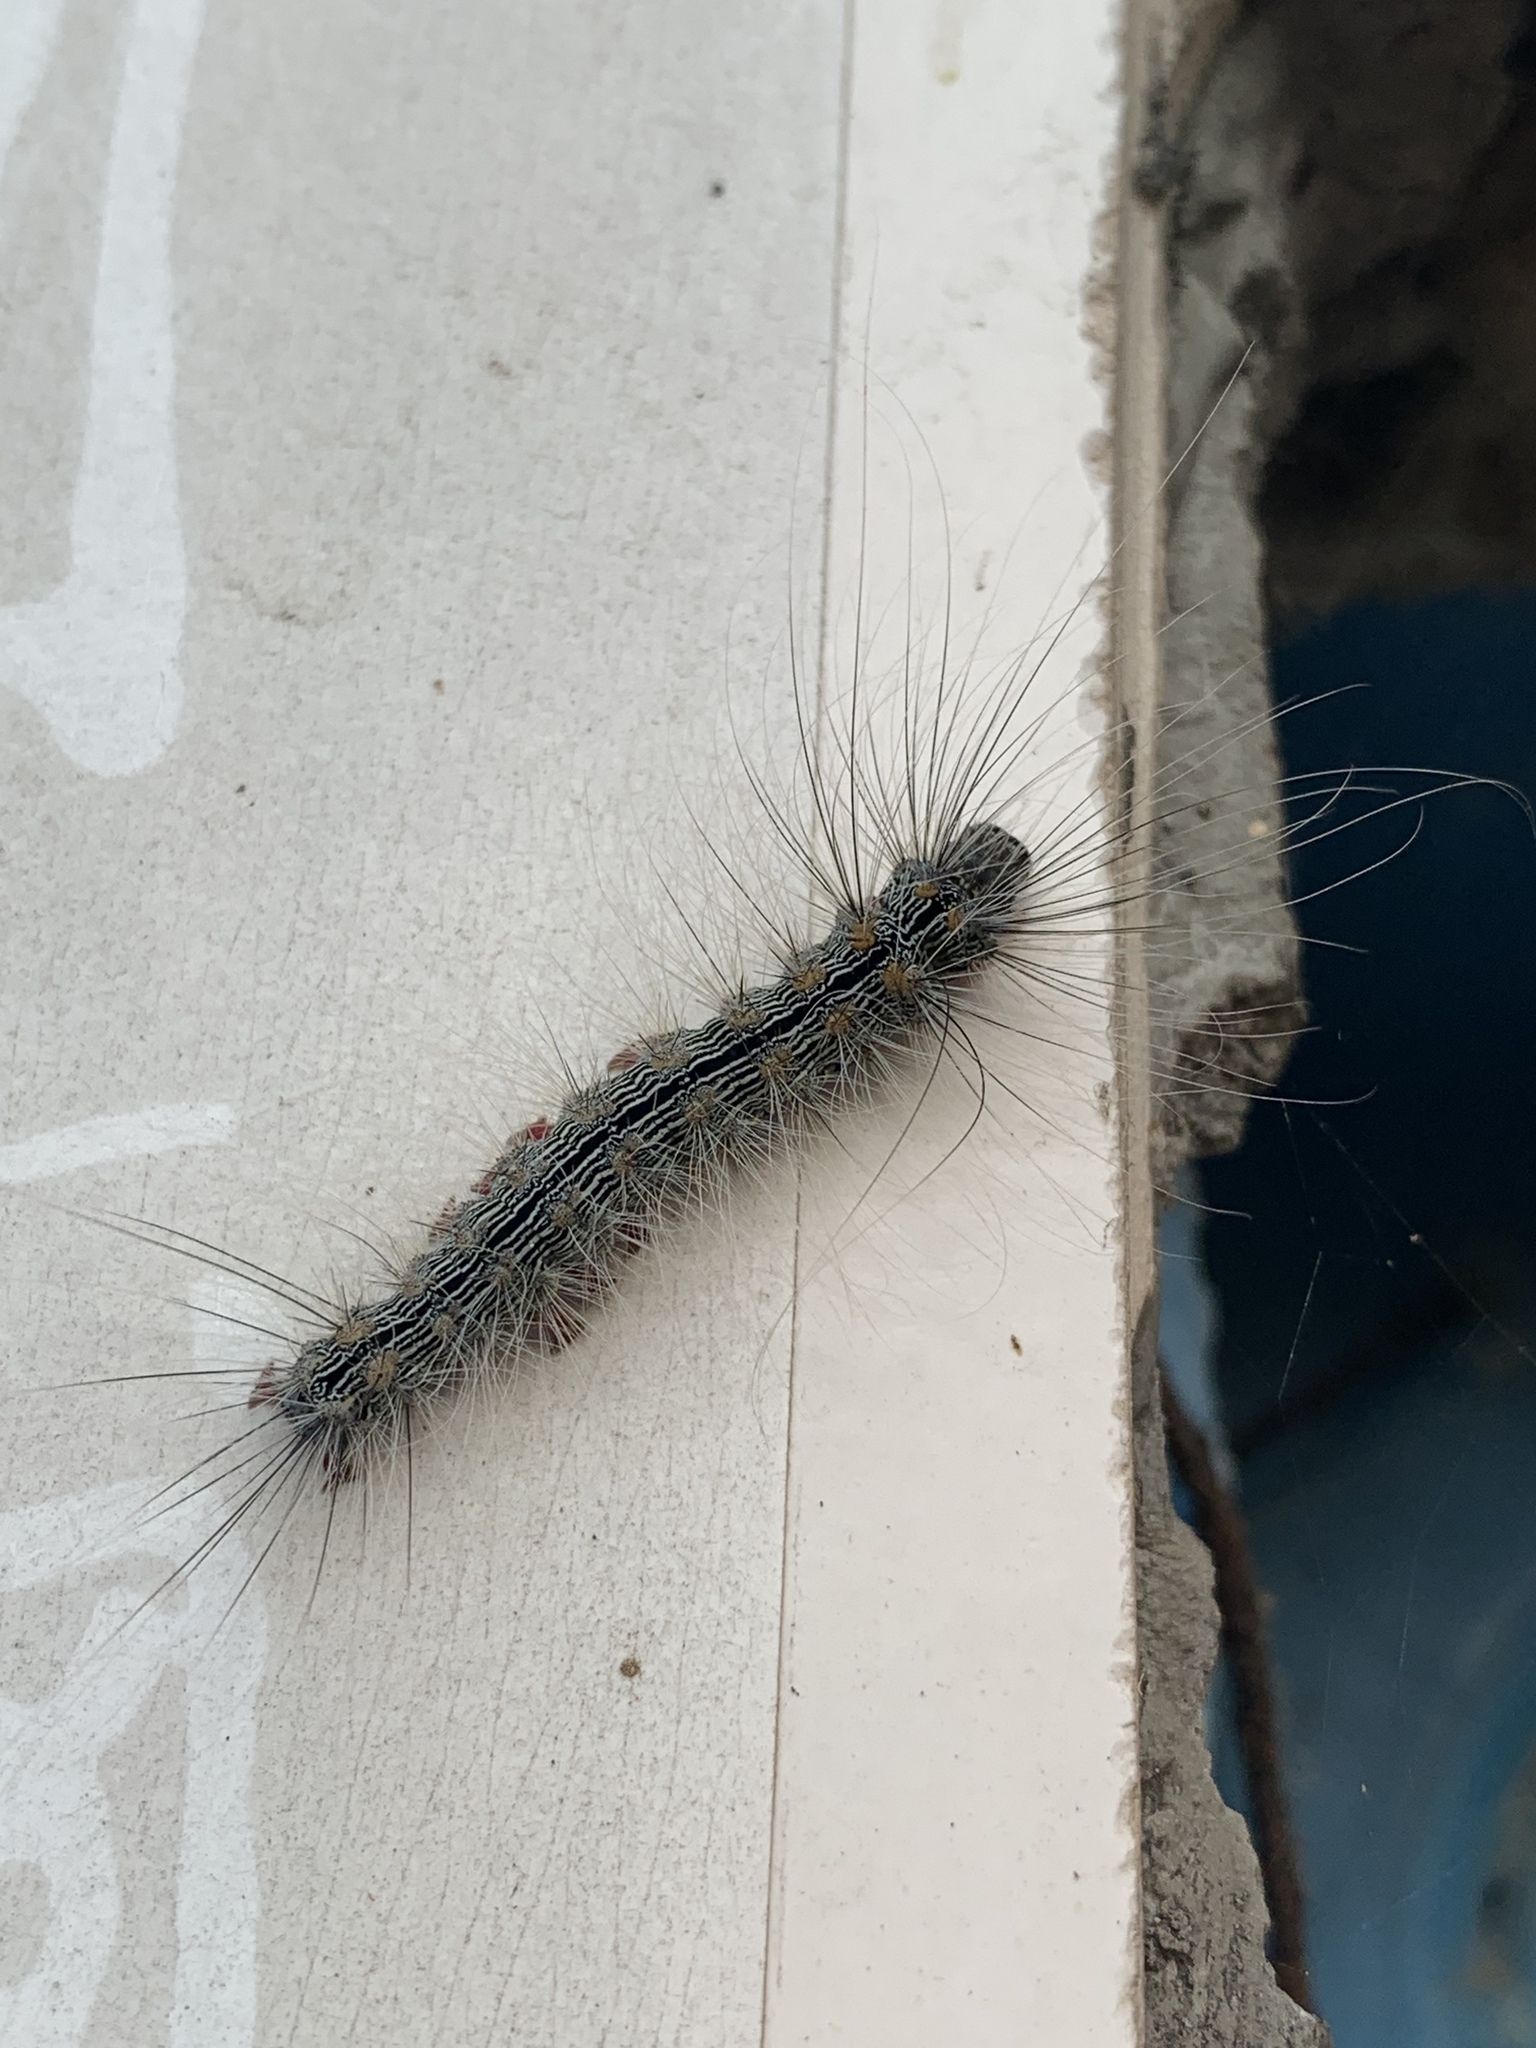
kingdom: Animalia
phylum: Arthropoda
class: Insecta
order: Lepidoptera
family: Erebidae
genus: Chrysaeglia
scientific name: Chrysaeglia magnifica
